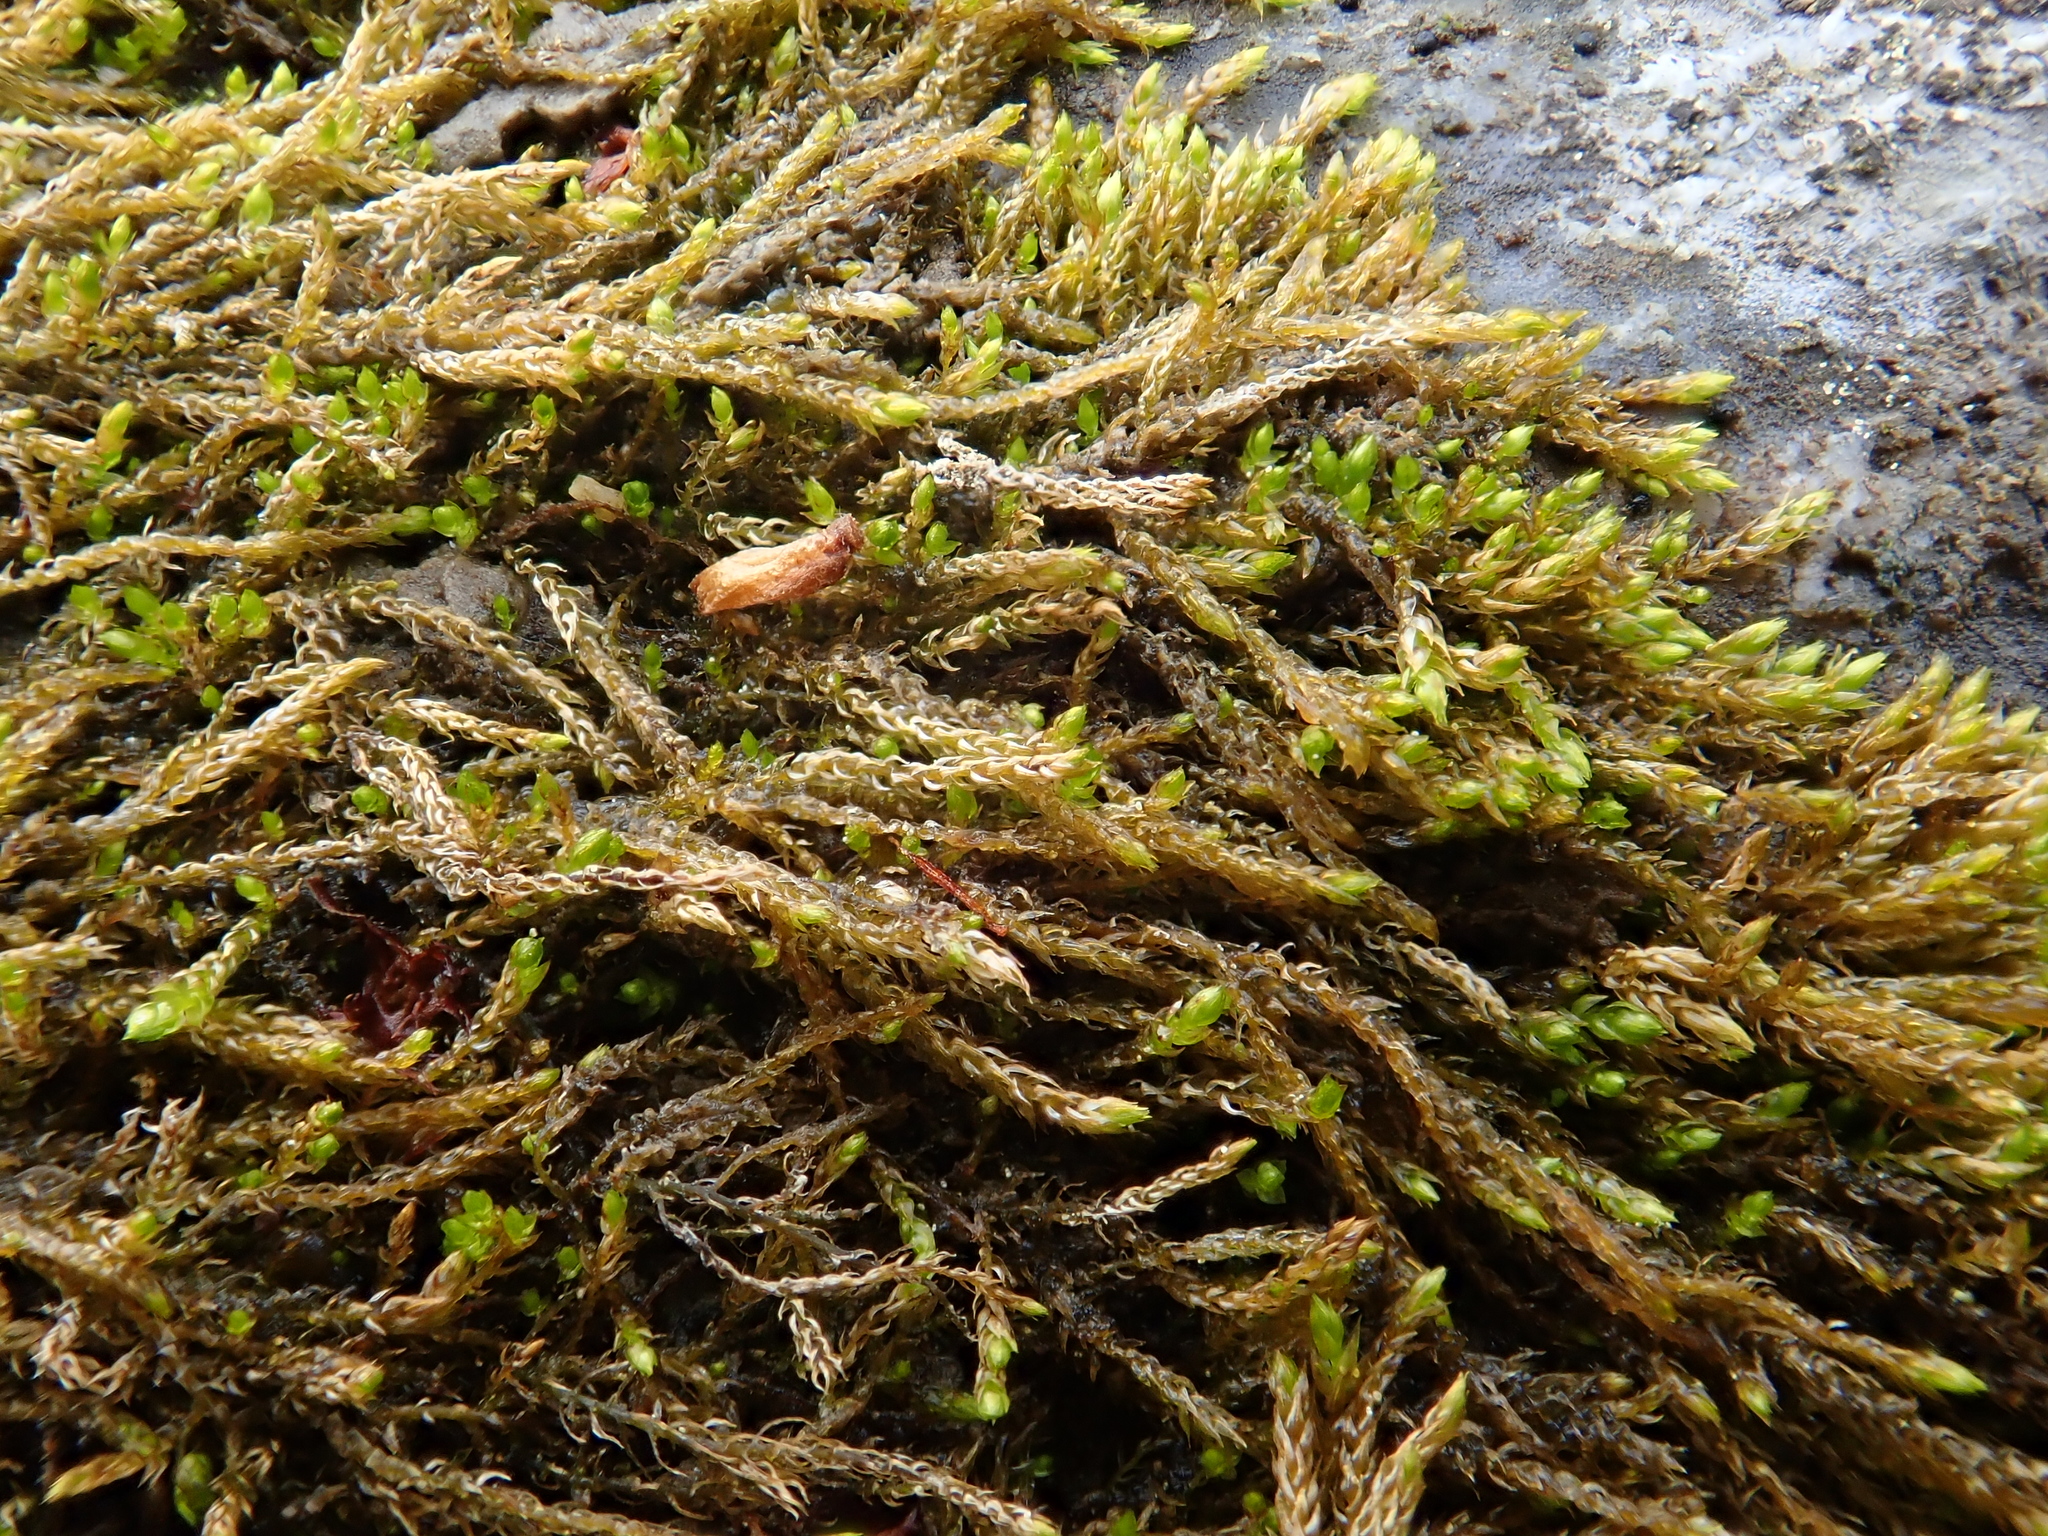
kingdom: Plantae
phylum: Bryophyta
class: Bryopsida
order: Hypnales
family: Amblystegiaceae
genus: Hygroamblystegium
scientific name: Hygroamblystegium tenax
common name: Fountain feather-moss
